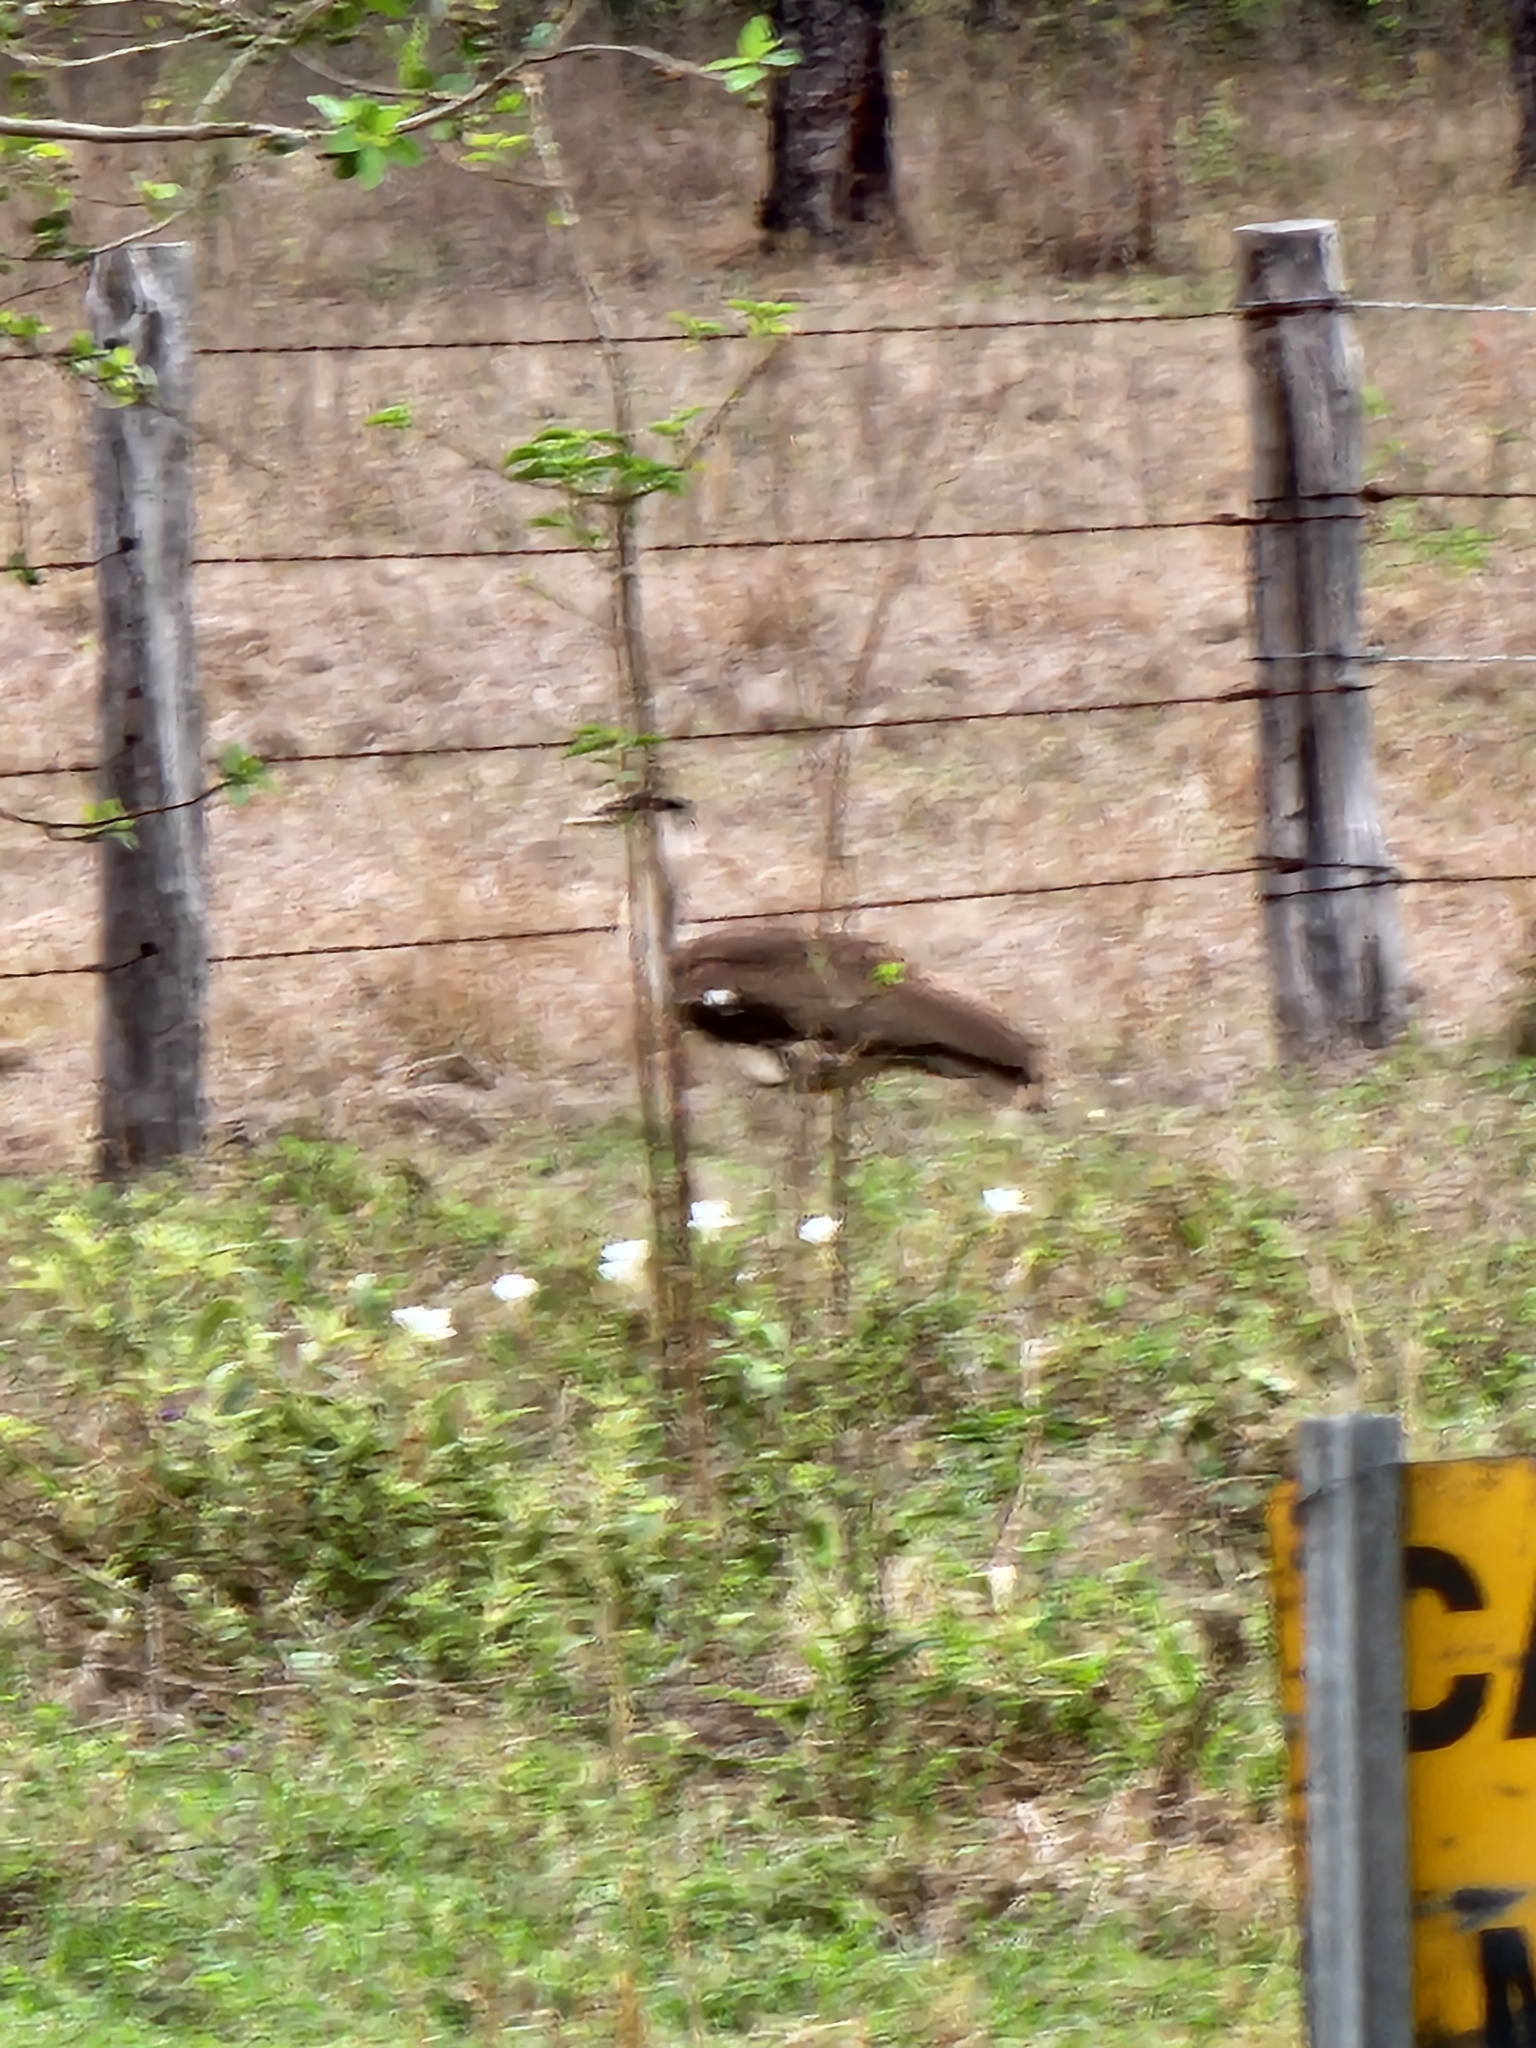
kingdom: Animalia
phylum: Chordata
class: Aves
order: Otidiformes
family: Otididae
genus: Ardeotis
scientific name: Ardeotis australis
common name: Australian bustard
